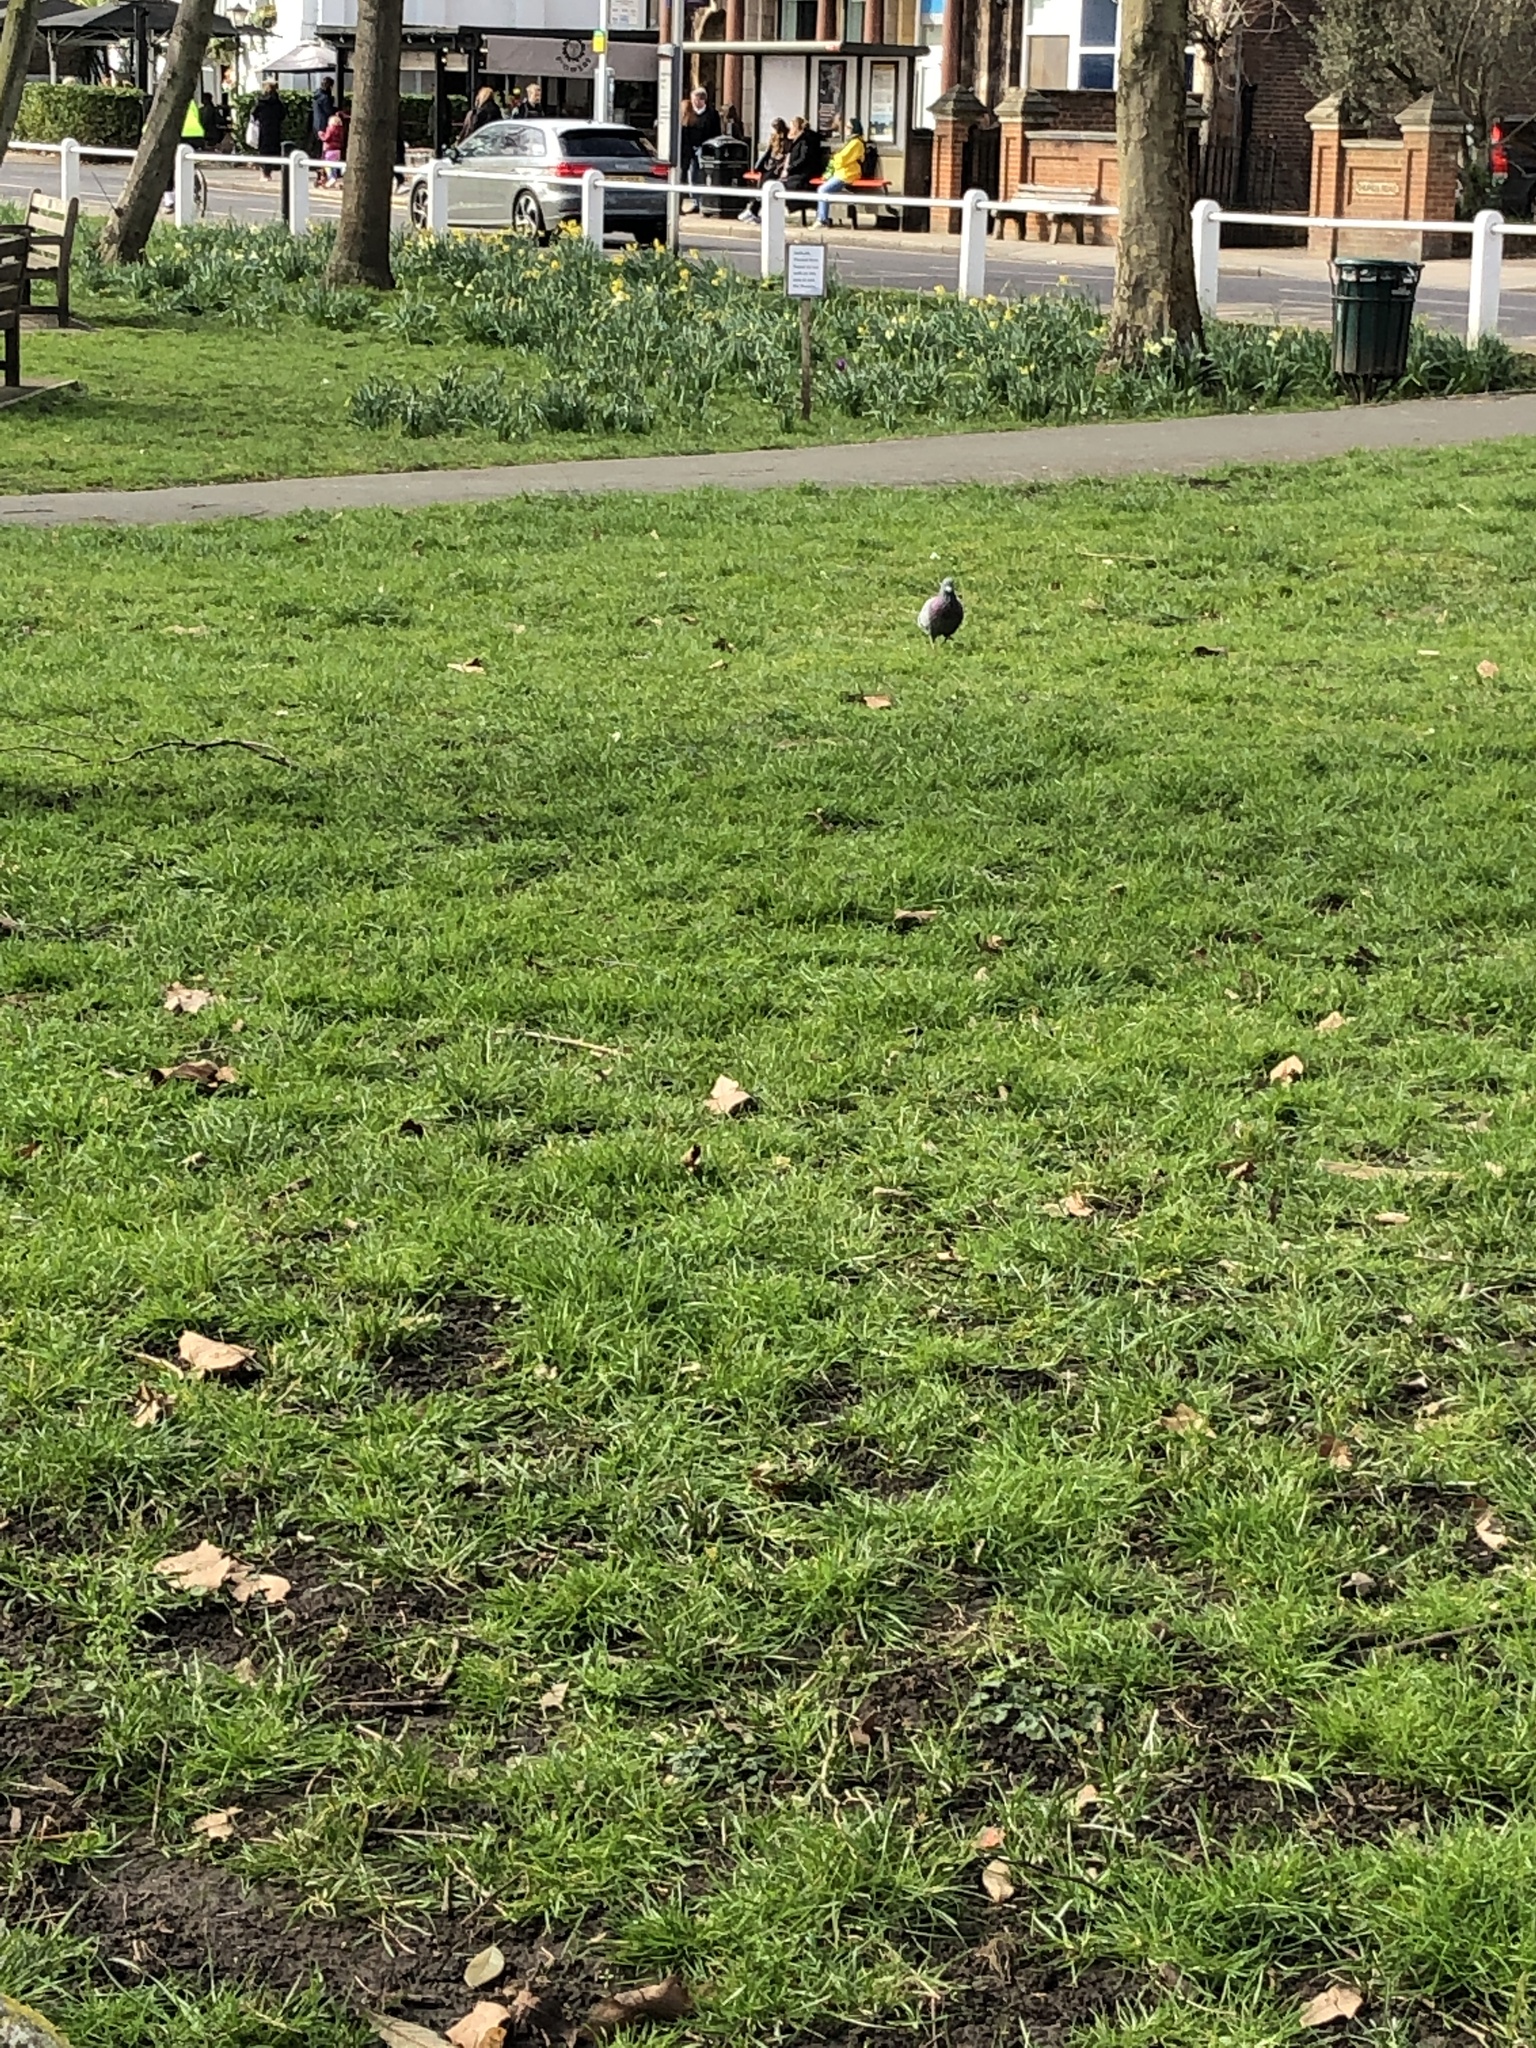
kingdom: Animalia
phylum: Chordata
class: Aves
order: Columbiformes
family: Columbidae
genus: Columba
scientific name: Columba livia
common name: Rock pigeon
